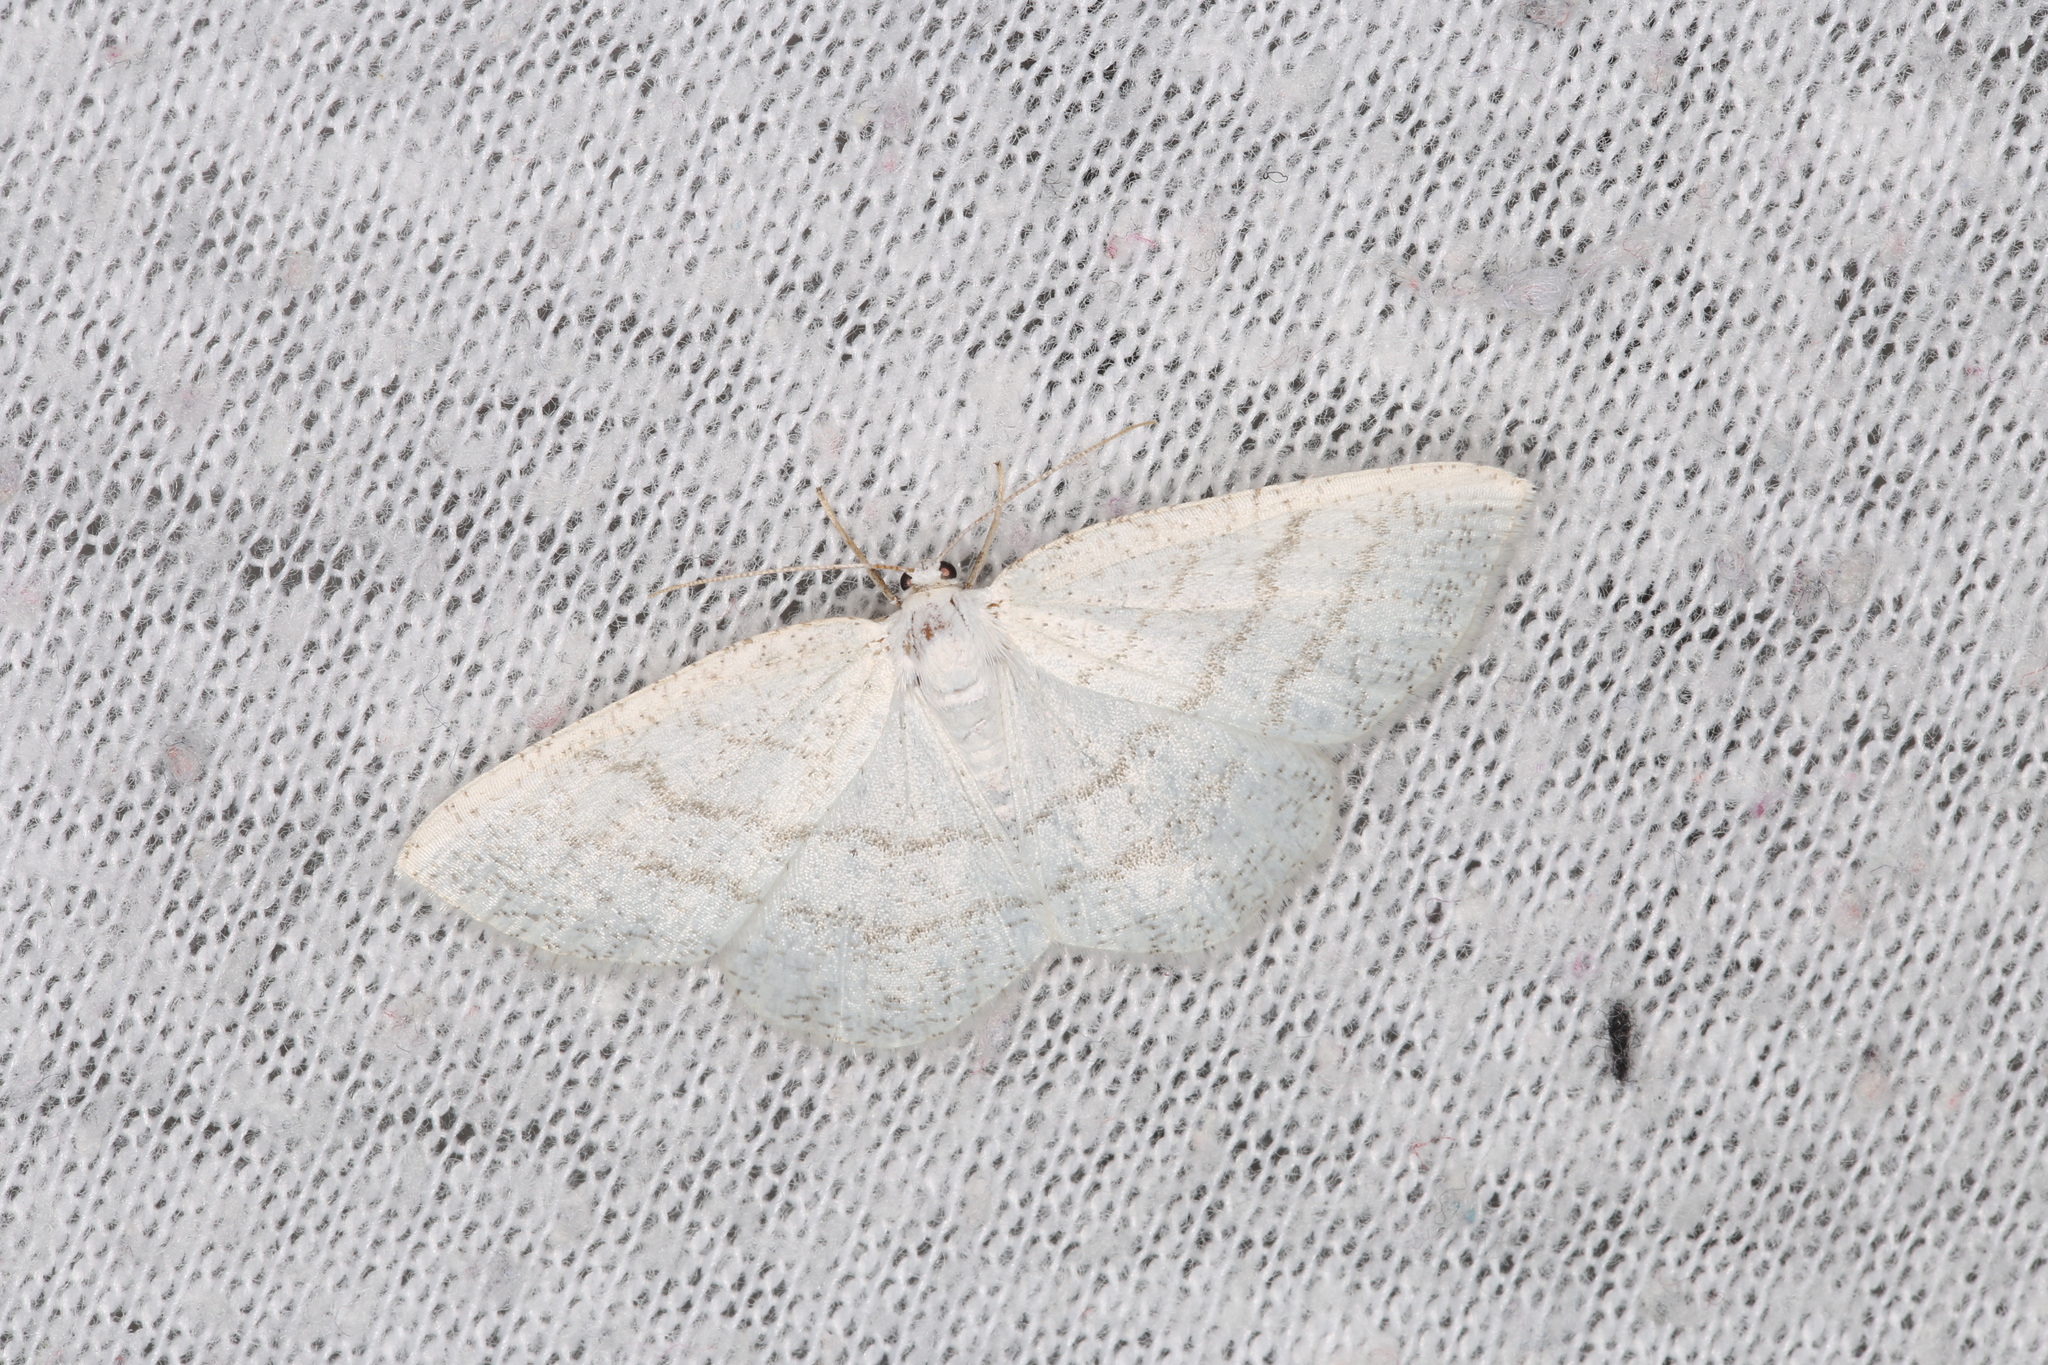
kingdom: Animalia
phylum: Arthropoda
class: Insecta
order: Lepidoptera
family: Geometridae
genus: Cabera
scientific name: Cabera pusaria
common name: Common white wave
